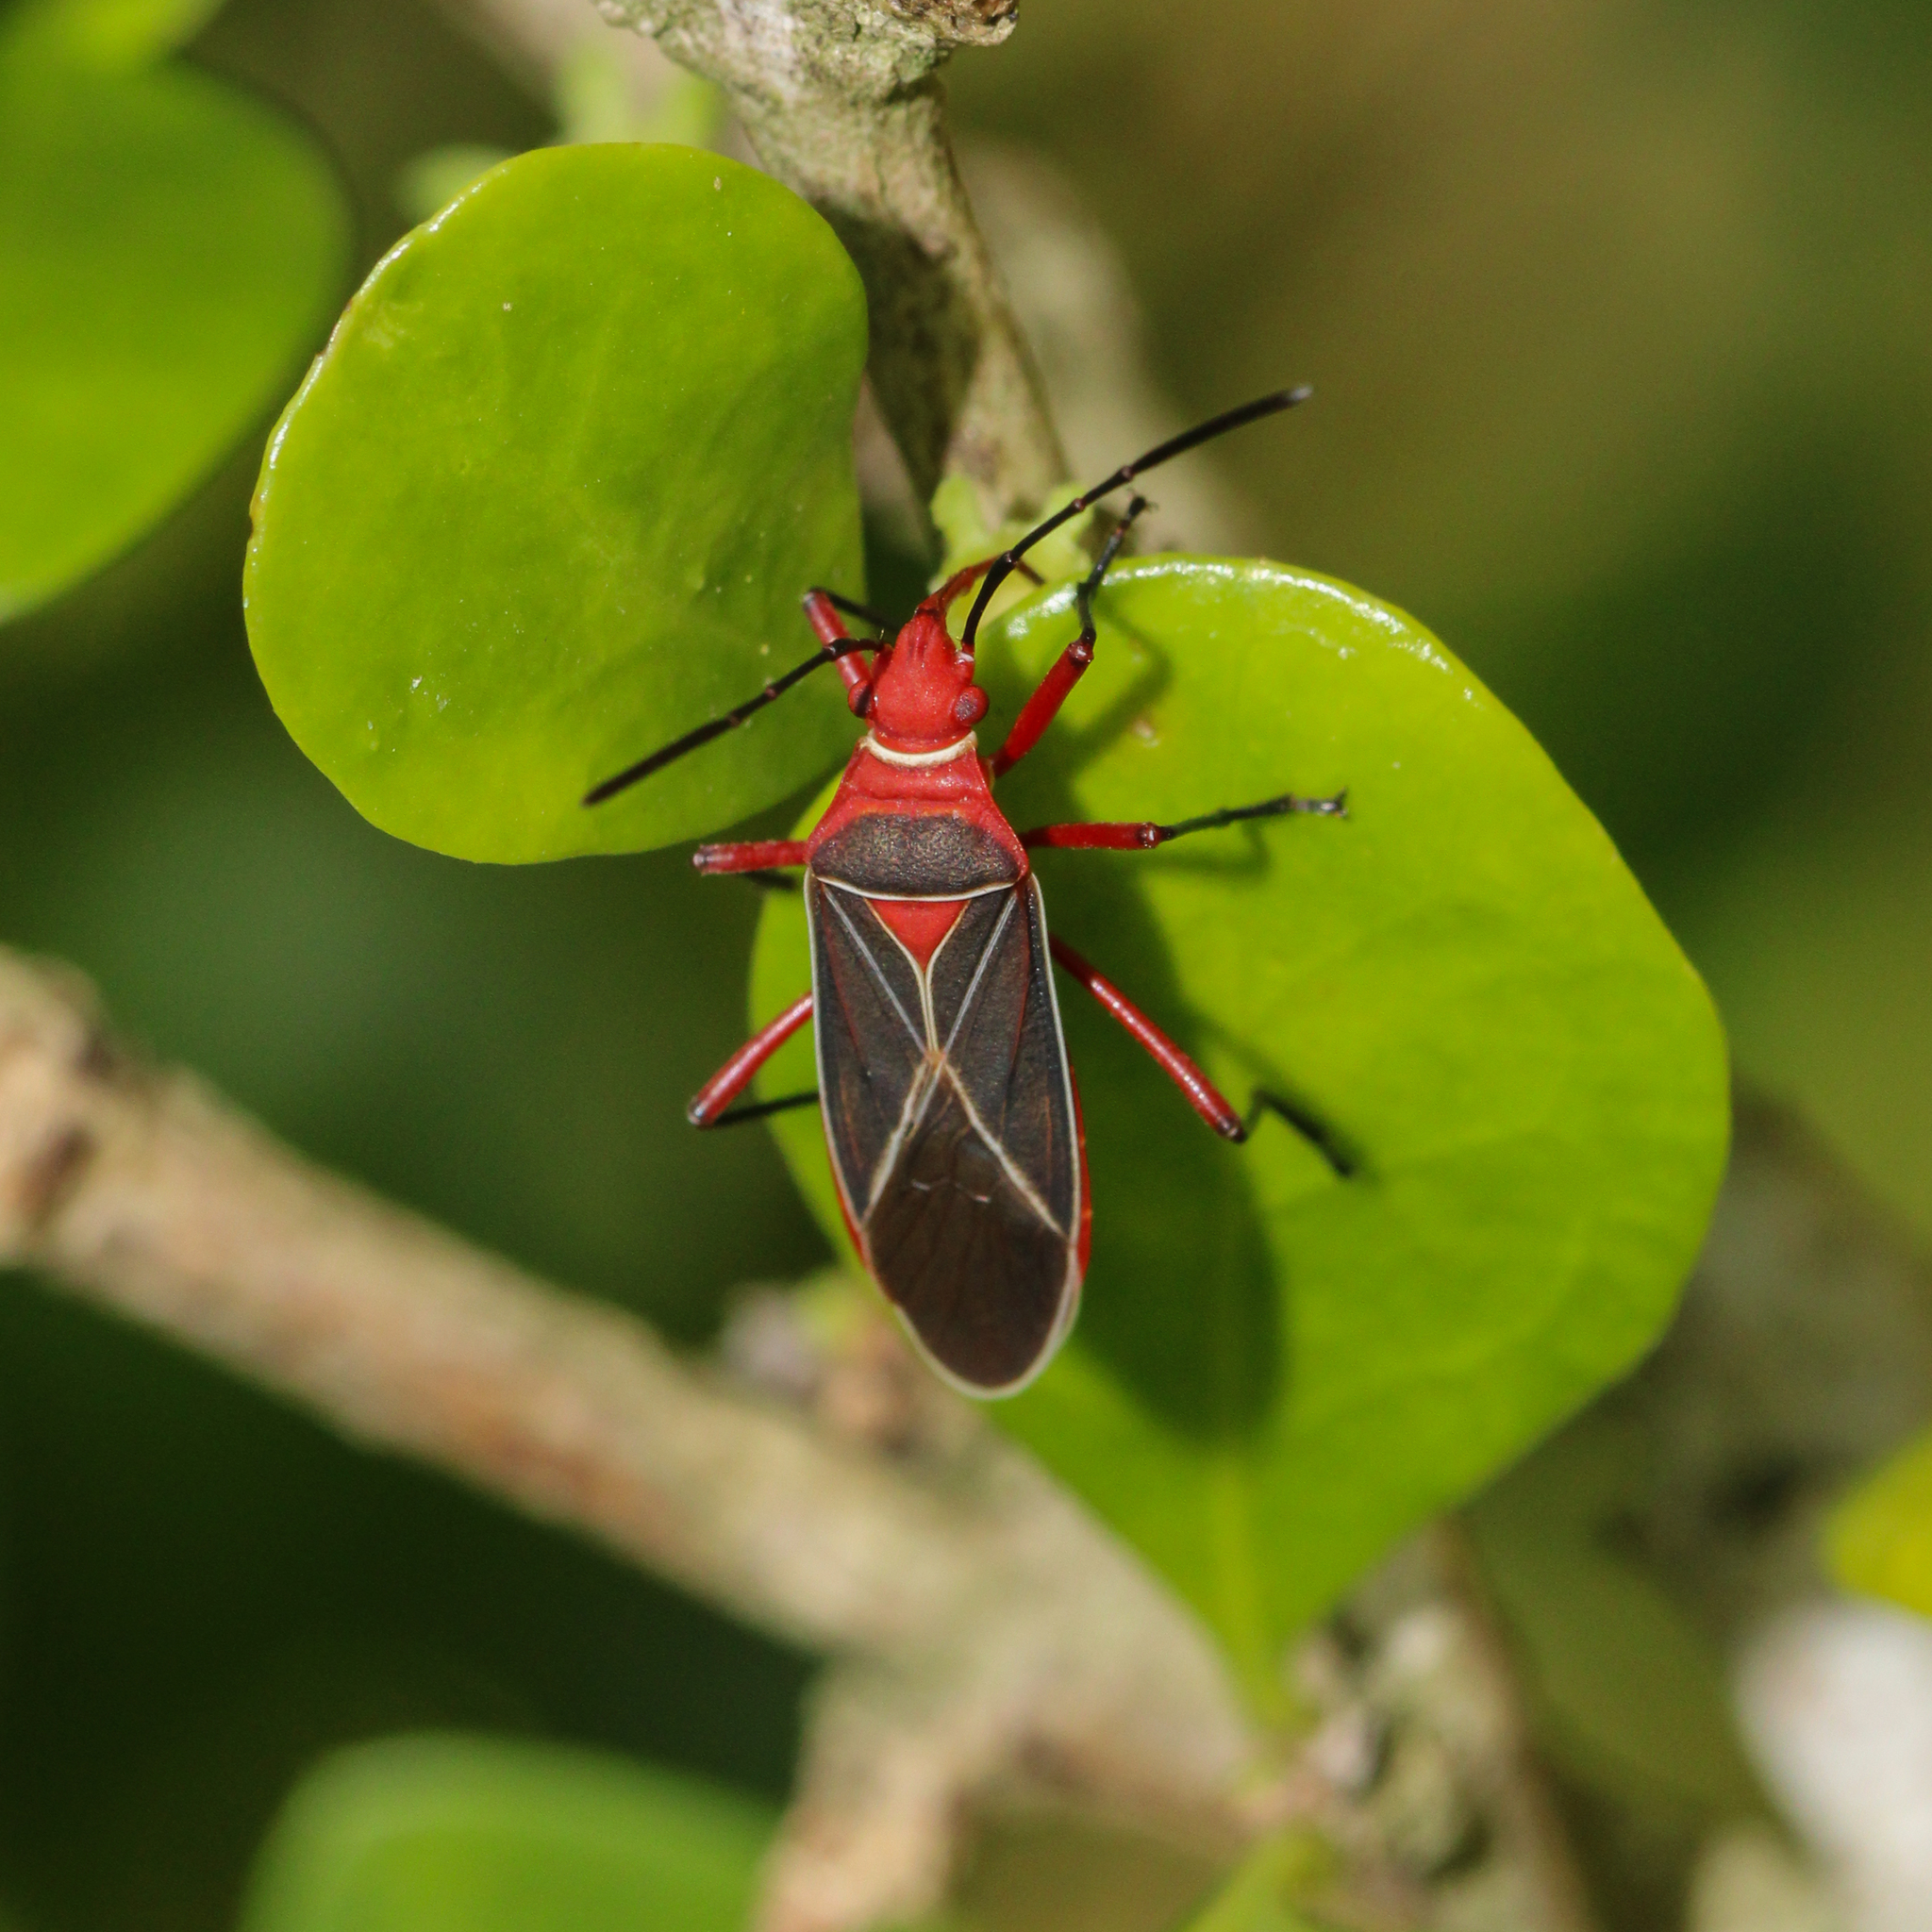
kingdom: Animalia
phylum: Arthropoda
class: Insecta
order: Hemiptera
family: Pyrrhocoridae
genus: Dysdercus
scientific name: Dysdercus suturellus
